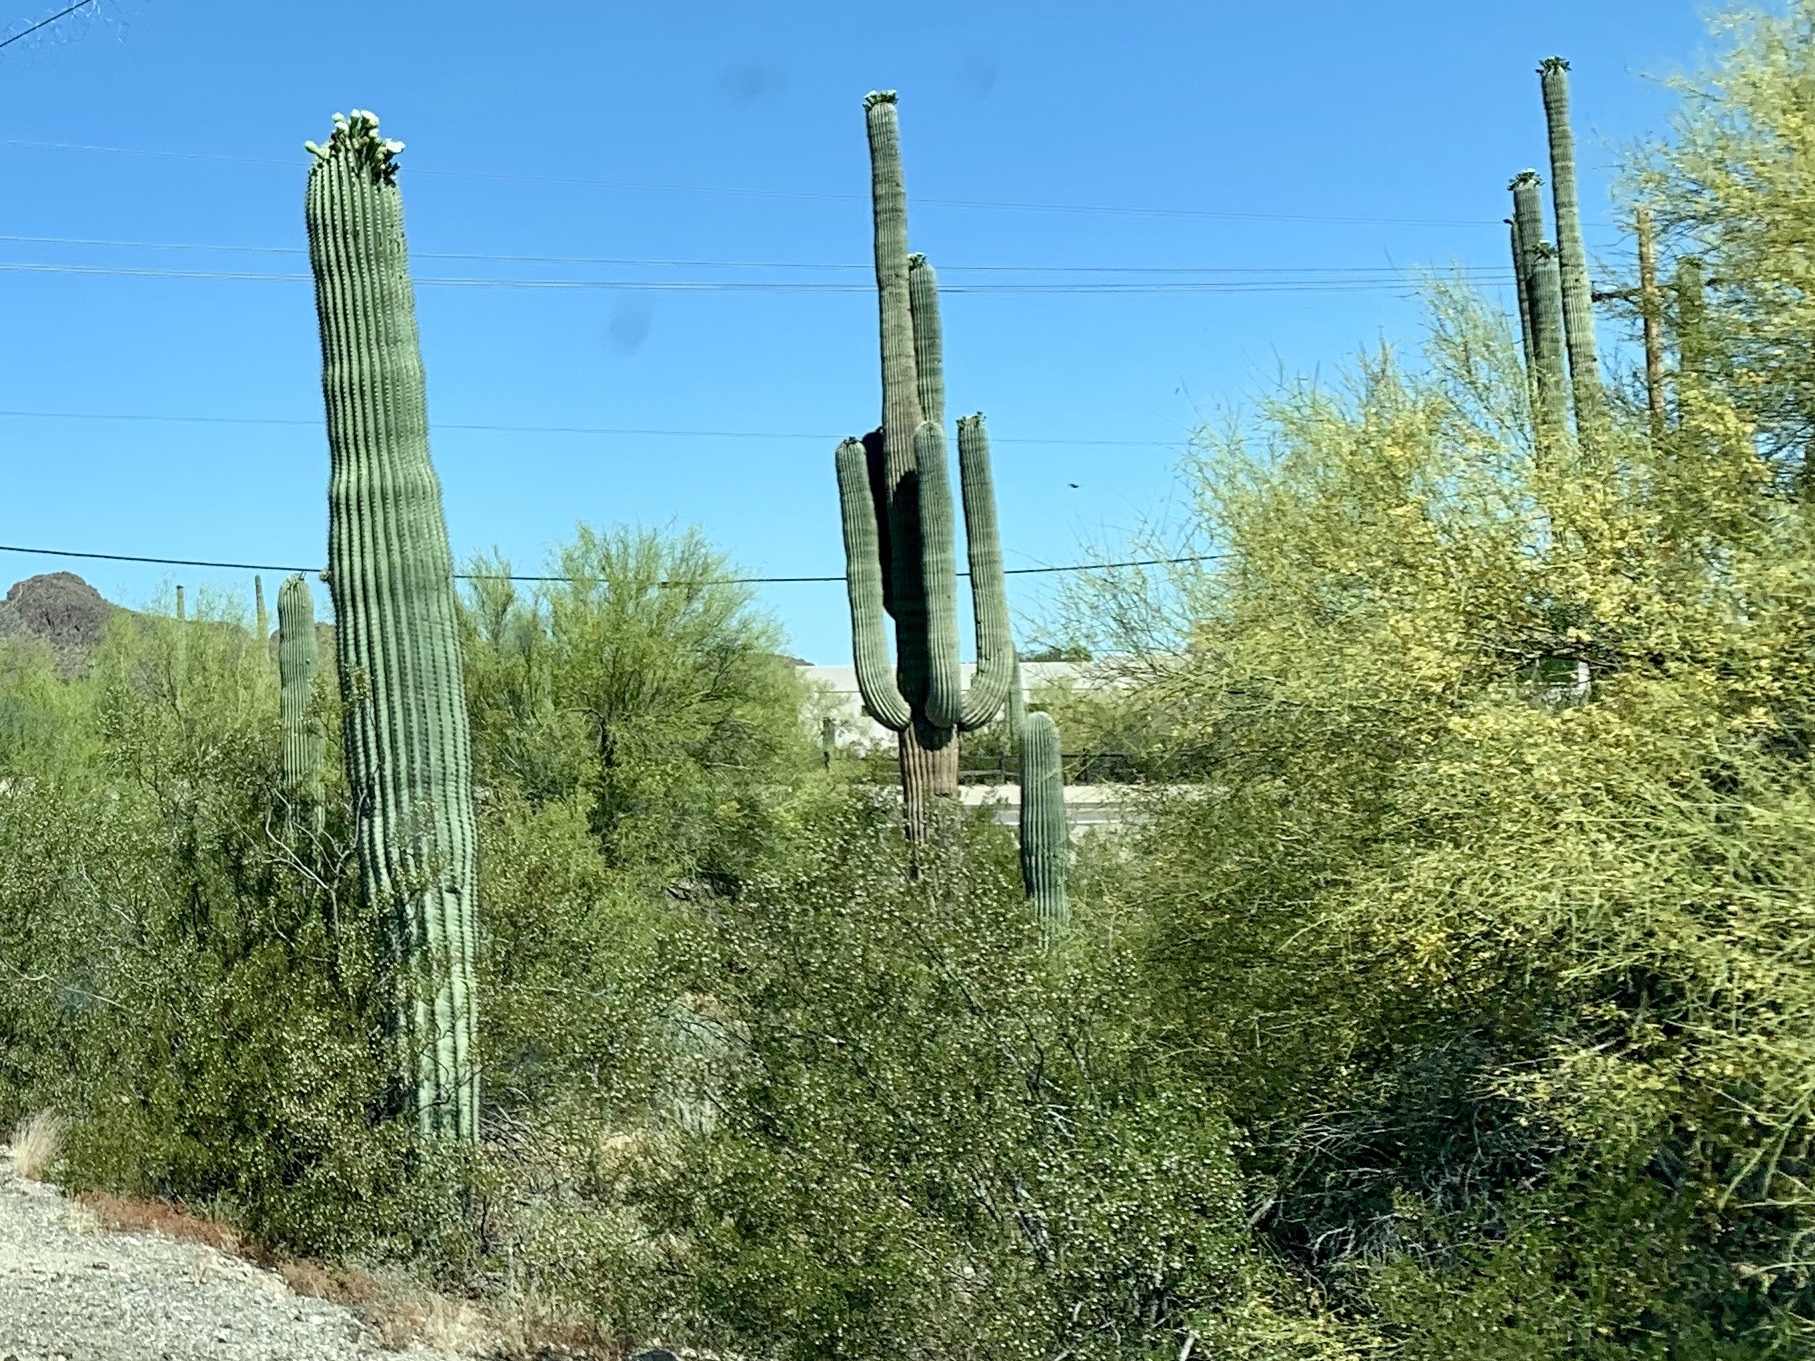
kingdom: Plantae
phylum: Tracheophyta
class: Magnoliopsida
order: Caryophyllales
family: Cactaceae
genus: Carnegiea
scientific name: Carnegiea gigantea
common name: Saguaro
